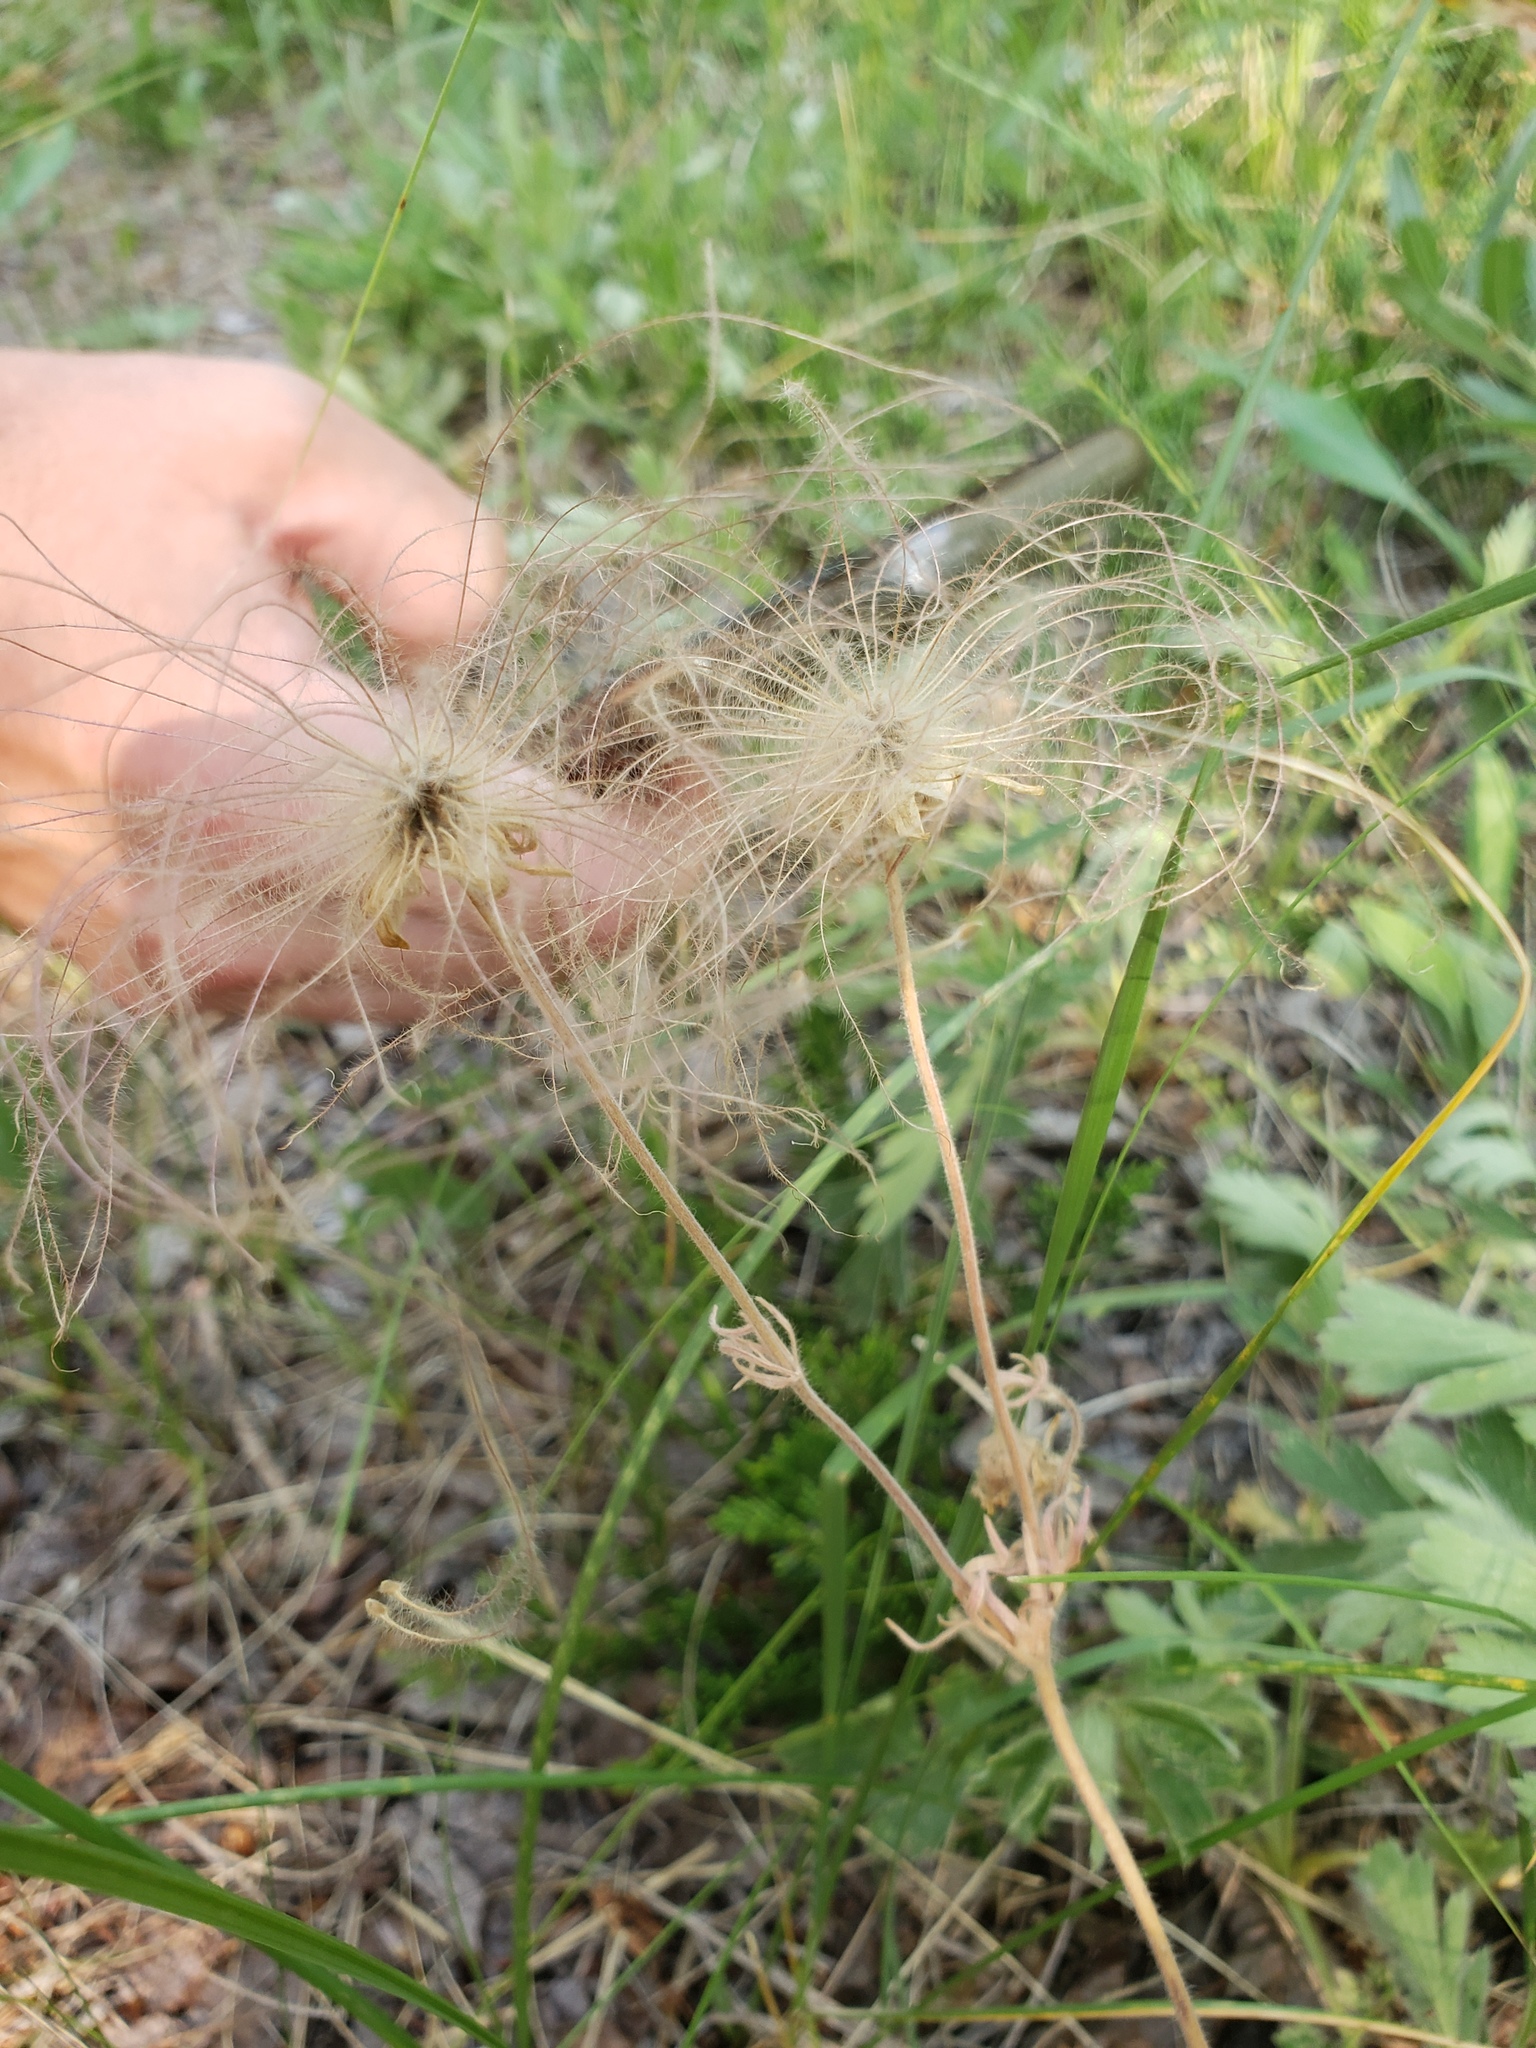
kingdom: Plantae
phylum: Tracheophyta
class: Magnoliopsida
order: Rosales
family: Rosaceae
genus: Geum
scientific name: Geum triflorum
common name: Old man's whiskers
